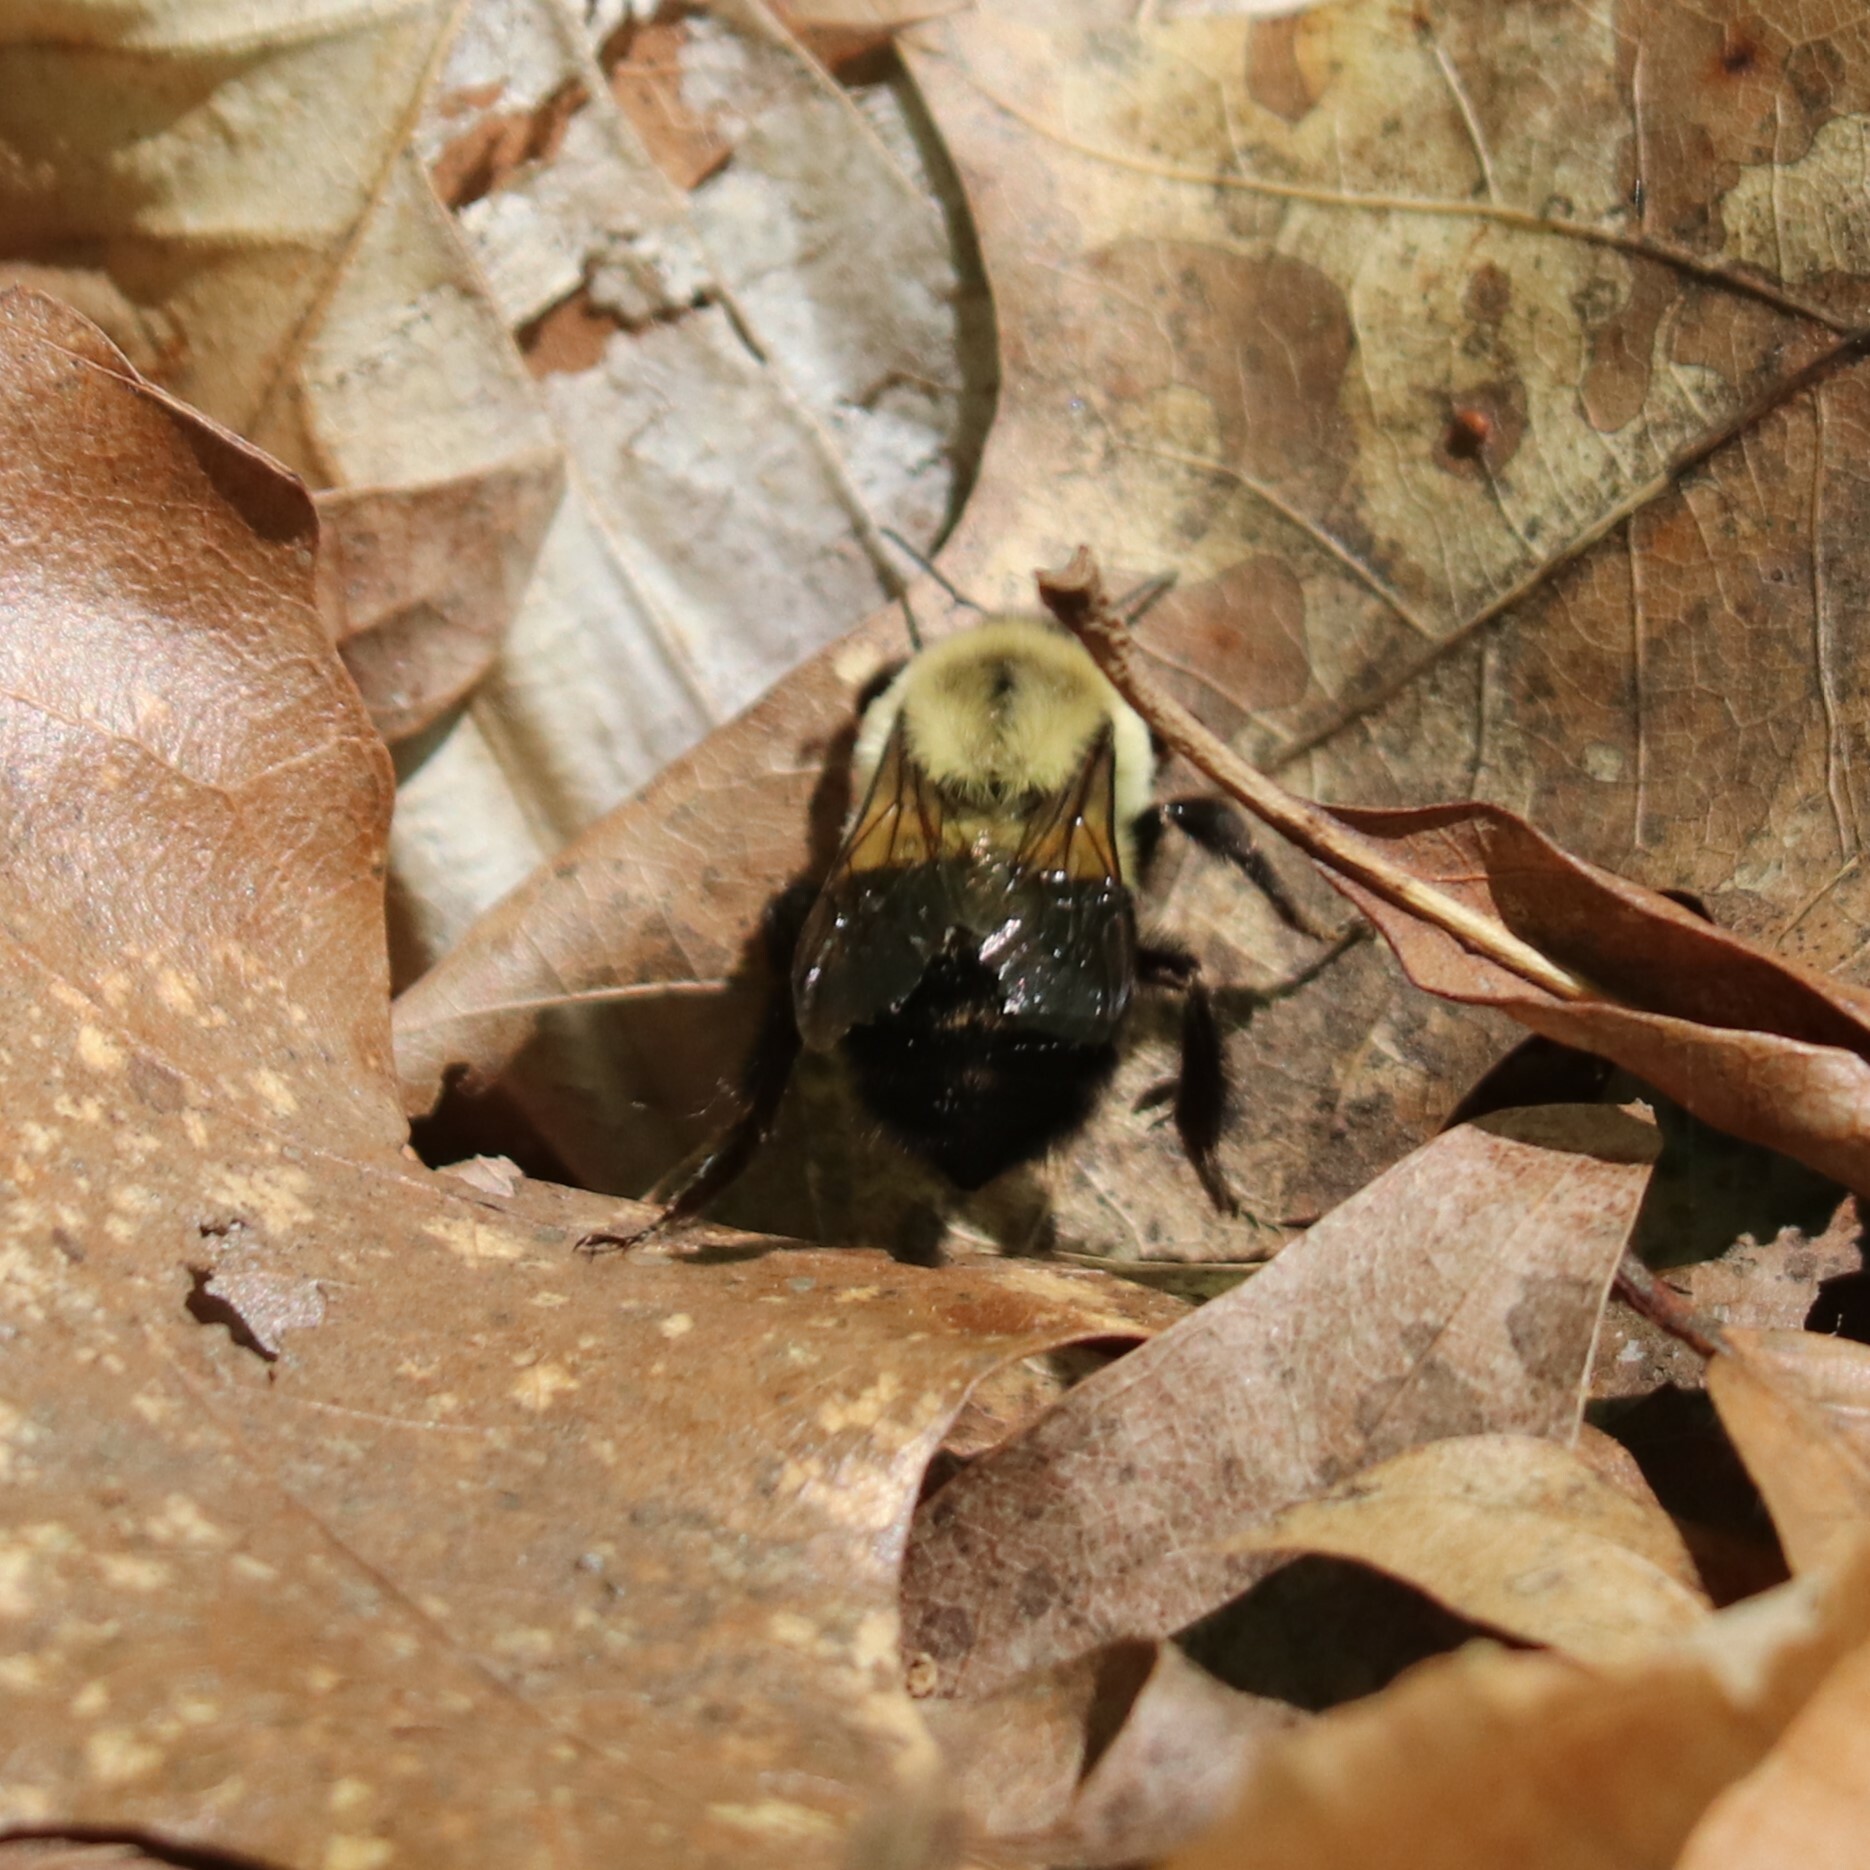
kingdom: Animalia
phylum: Arthropoda
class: Insecta
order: Hymenoptera
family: Apidae
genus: Bombus
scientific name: Bombus impatiens
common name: Common eastern bumble bee
